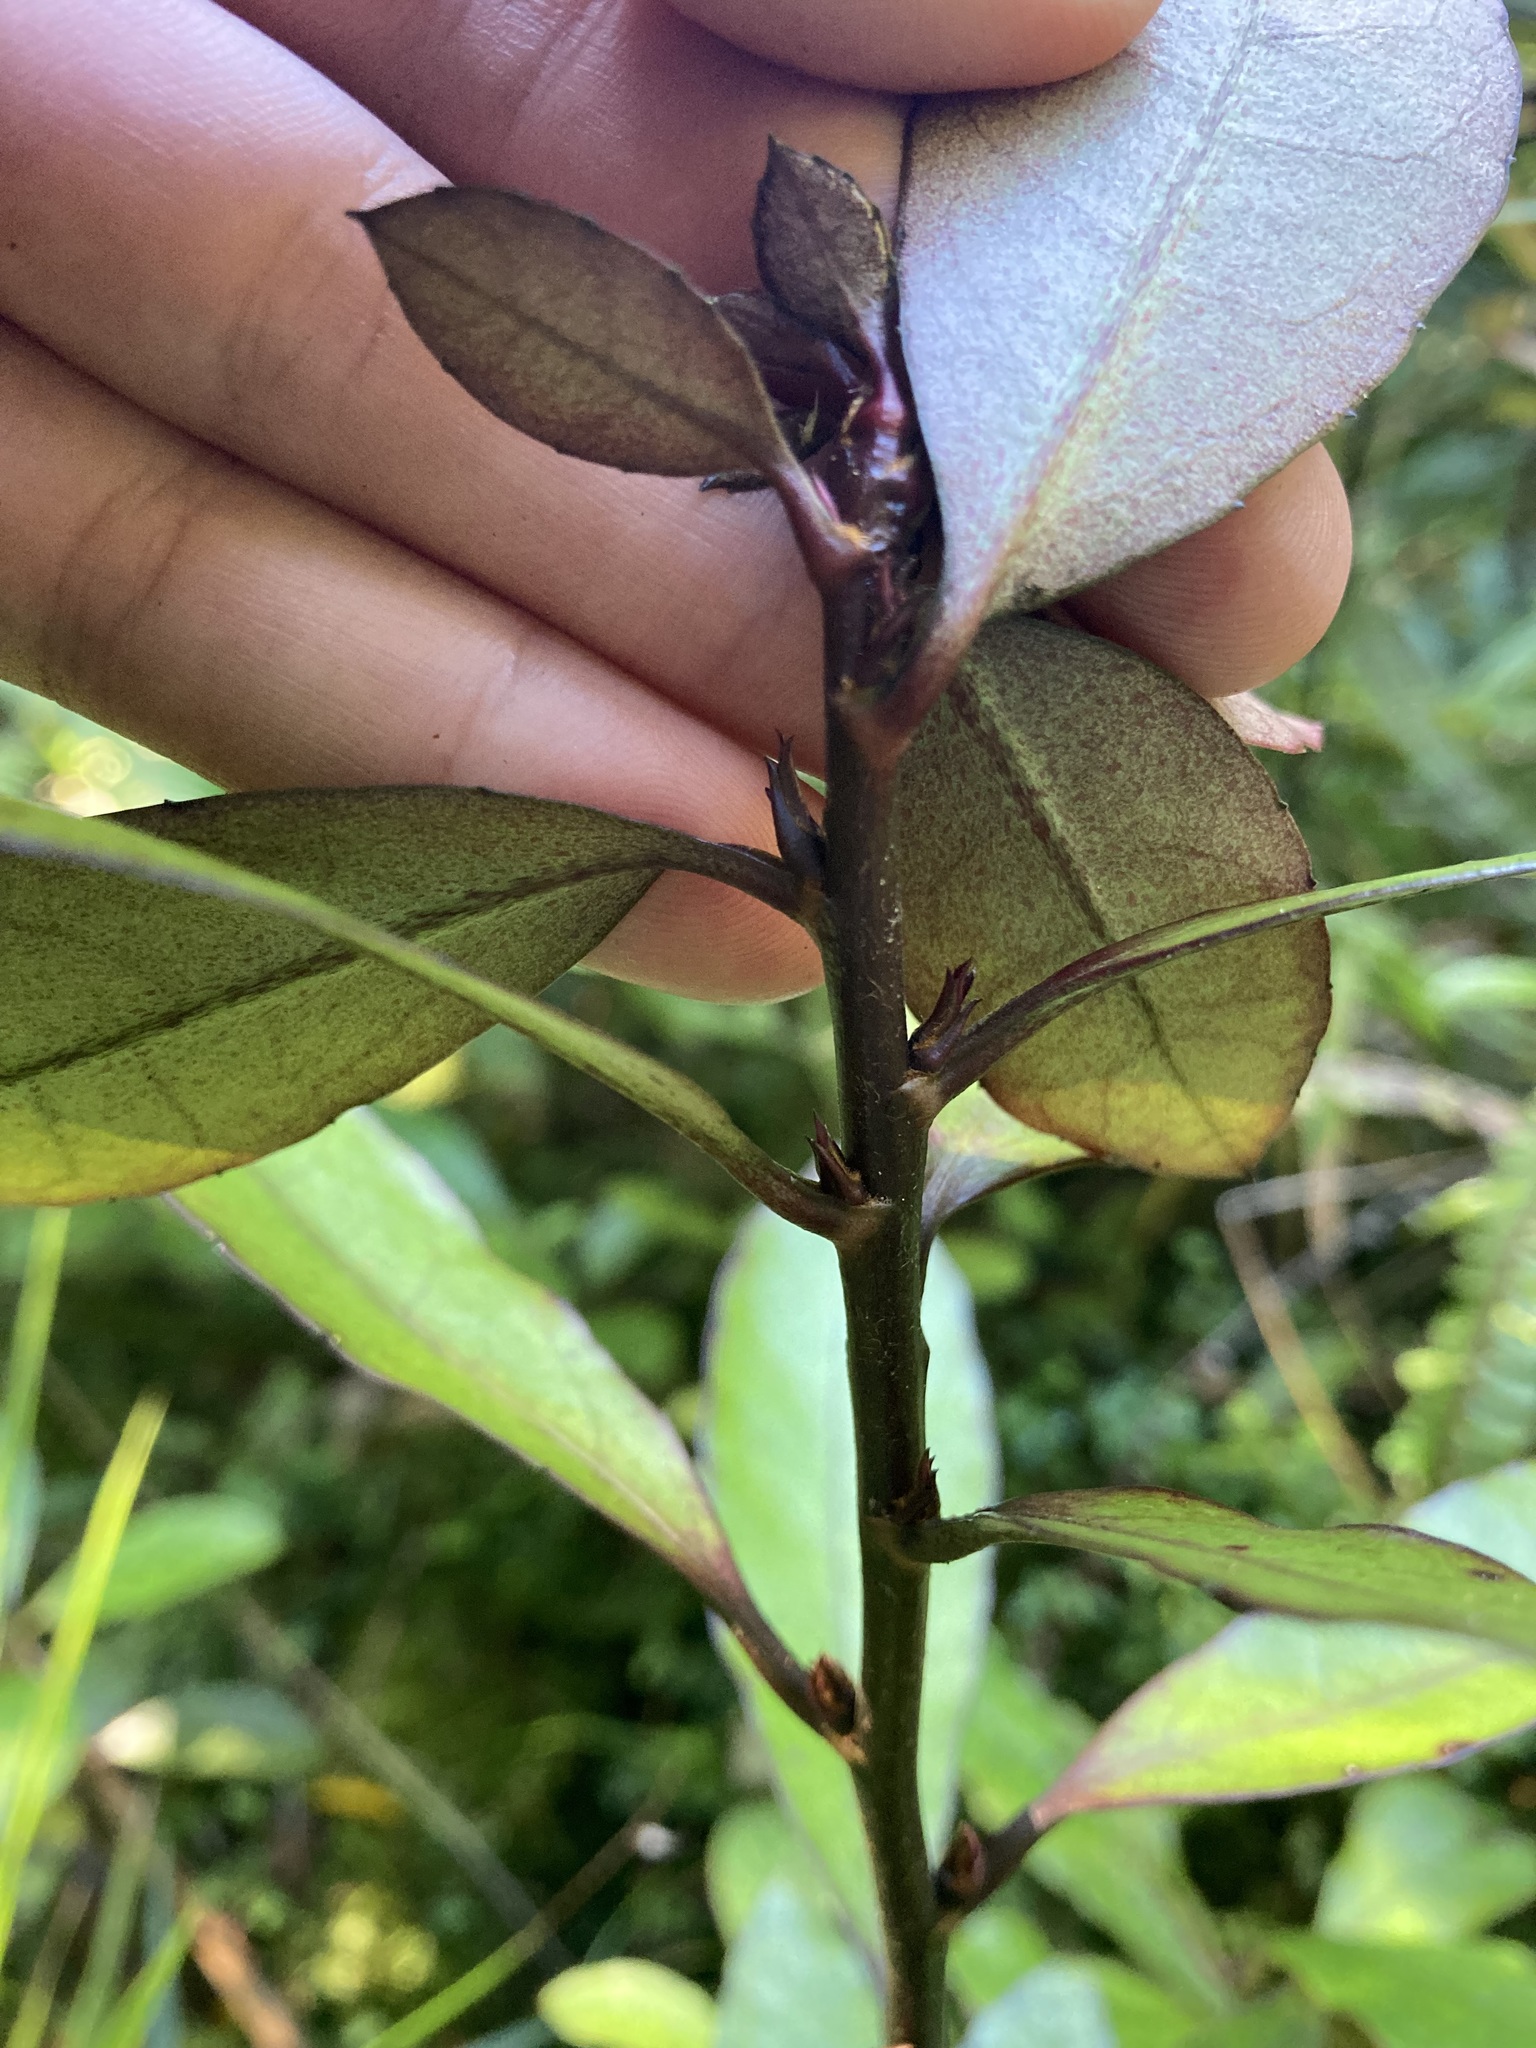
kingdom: Plantae
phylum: Tracheophyta
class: Magnoliopsida
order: Asterales
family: Alseuosmiaceae
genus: Alseuosmia
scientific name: Alseuosmia pusilla
